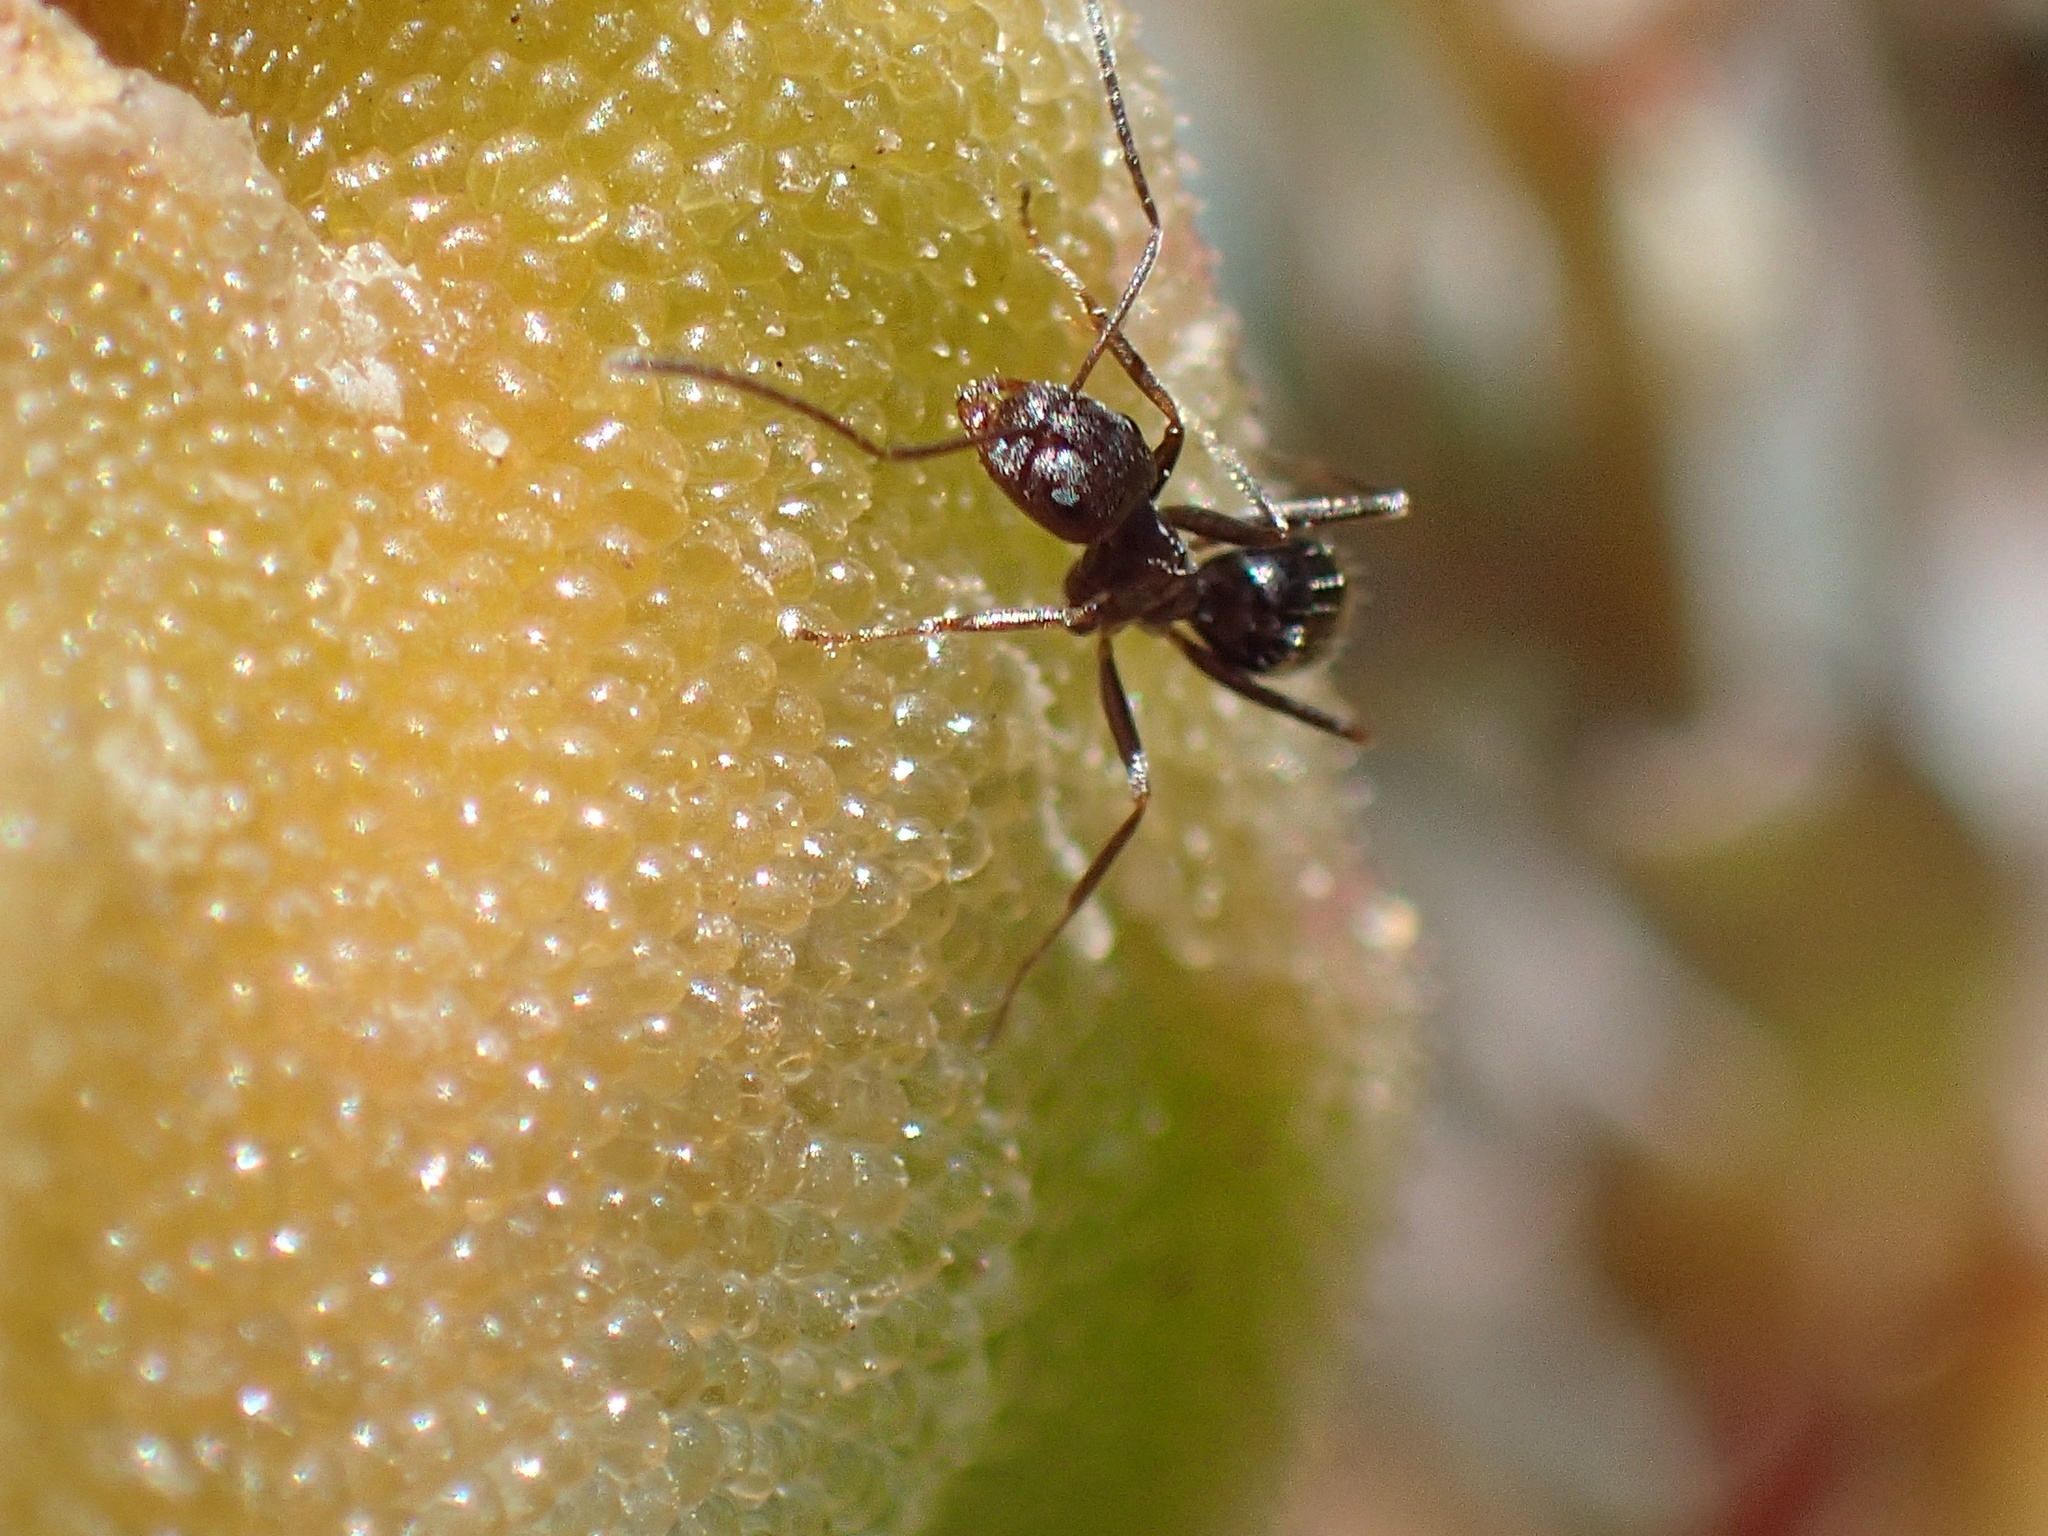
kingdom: Animalia
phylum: Arthropoda
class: Insecta
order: Hymenoptera
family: Formicidae
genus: Lepisiota
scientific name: Lepisiota capensis
